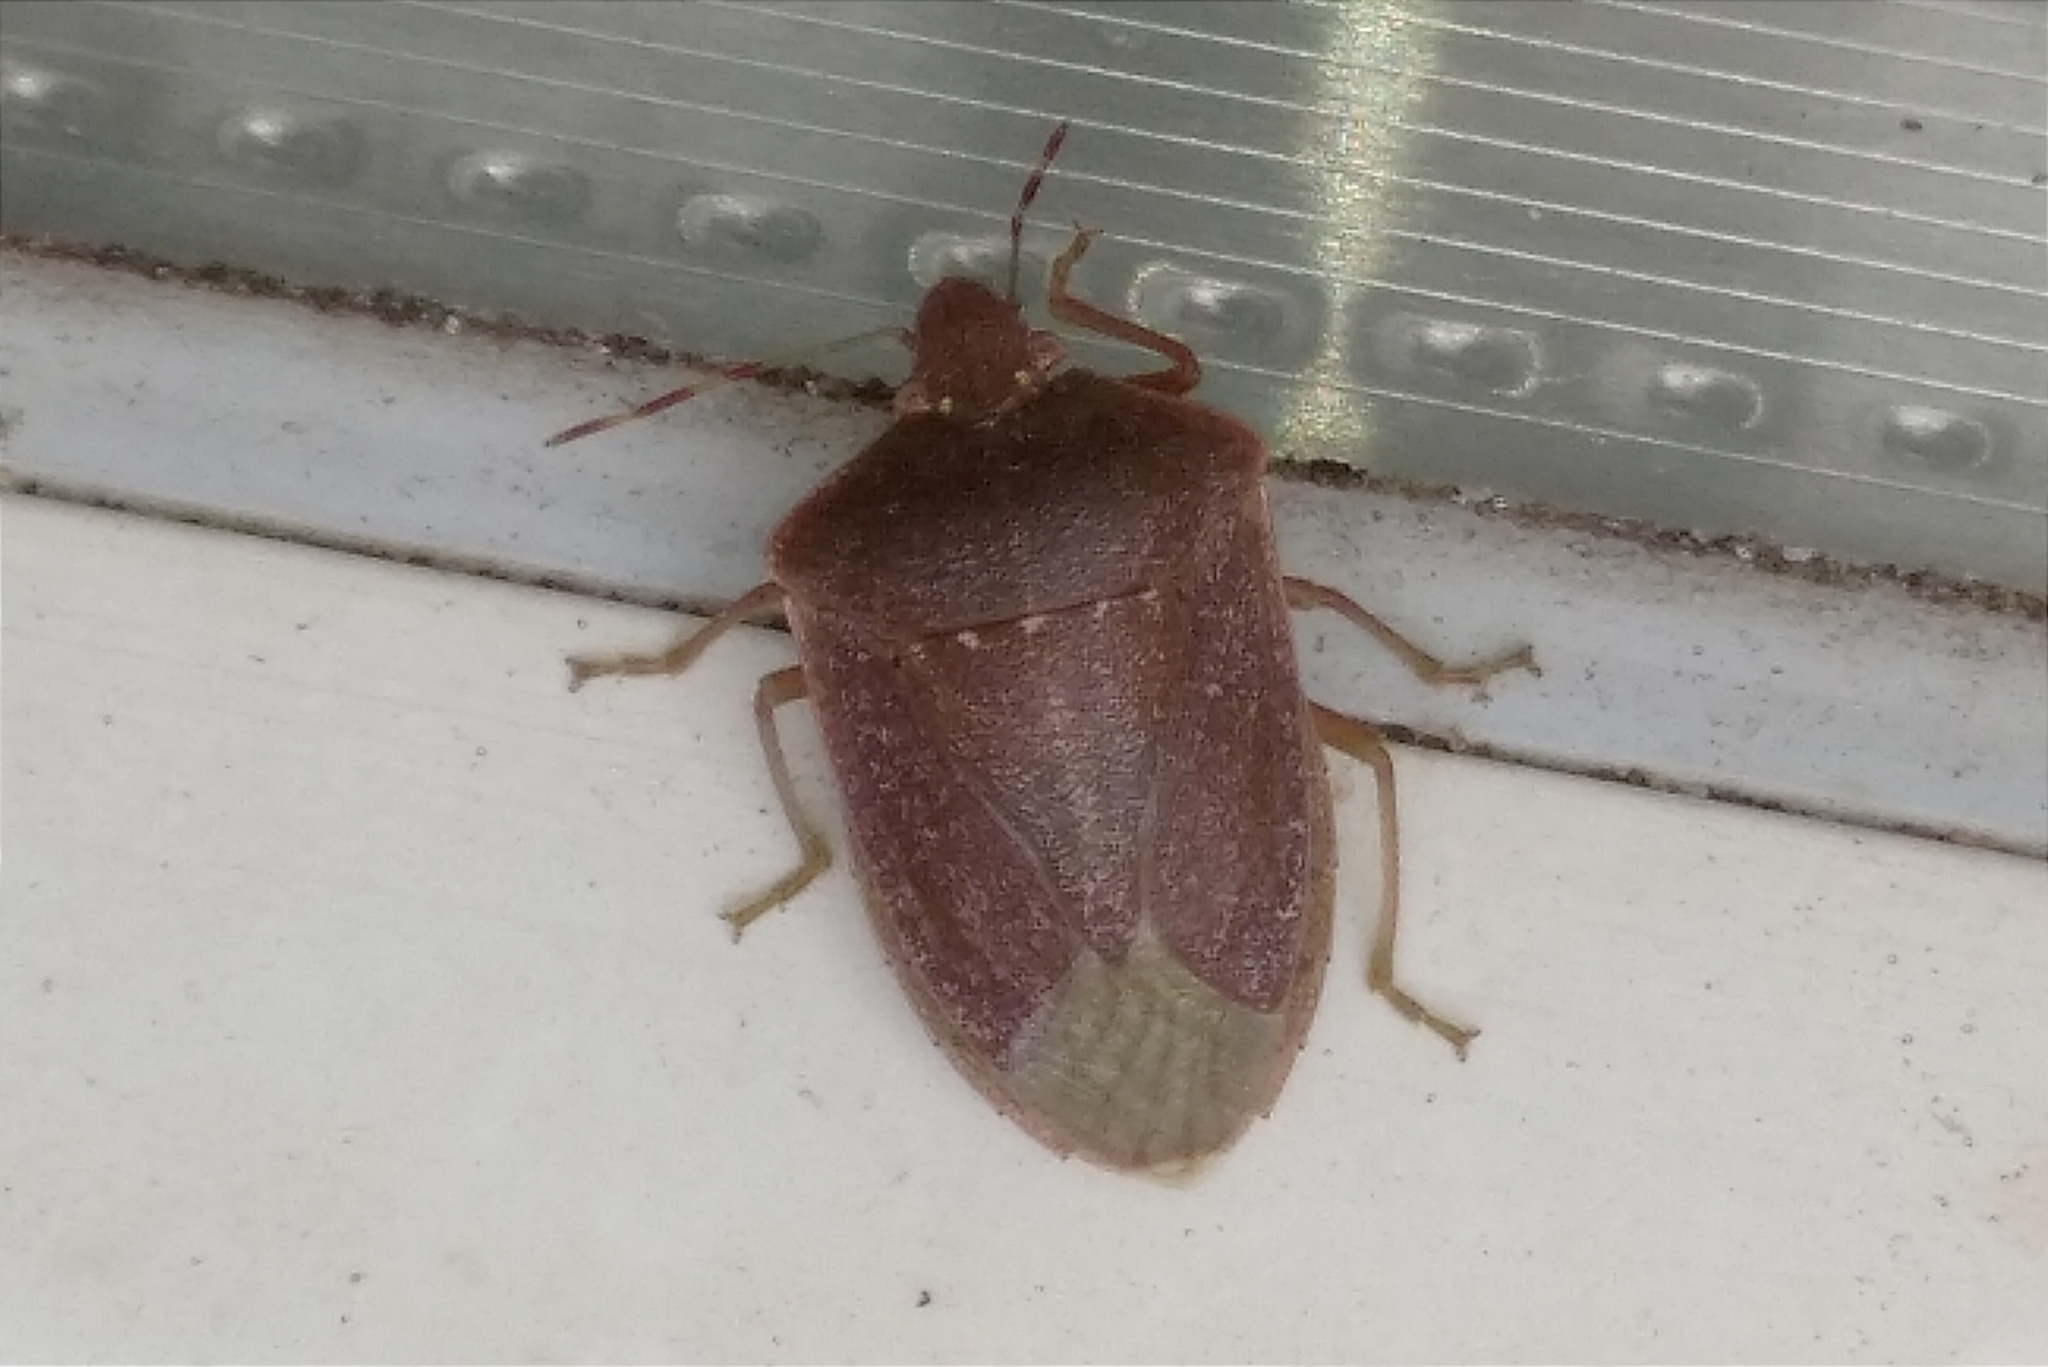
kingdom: Animalia
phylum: Arthropoda
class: Insecta
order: Hemiptera
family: Pentatomidae
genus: Nezara
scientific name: Nezara viridula
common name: Southern green stink bug
